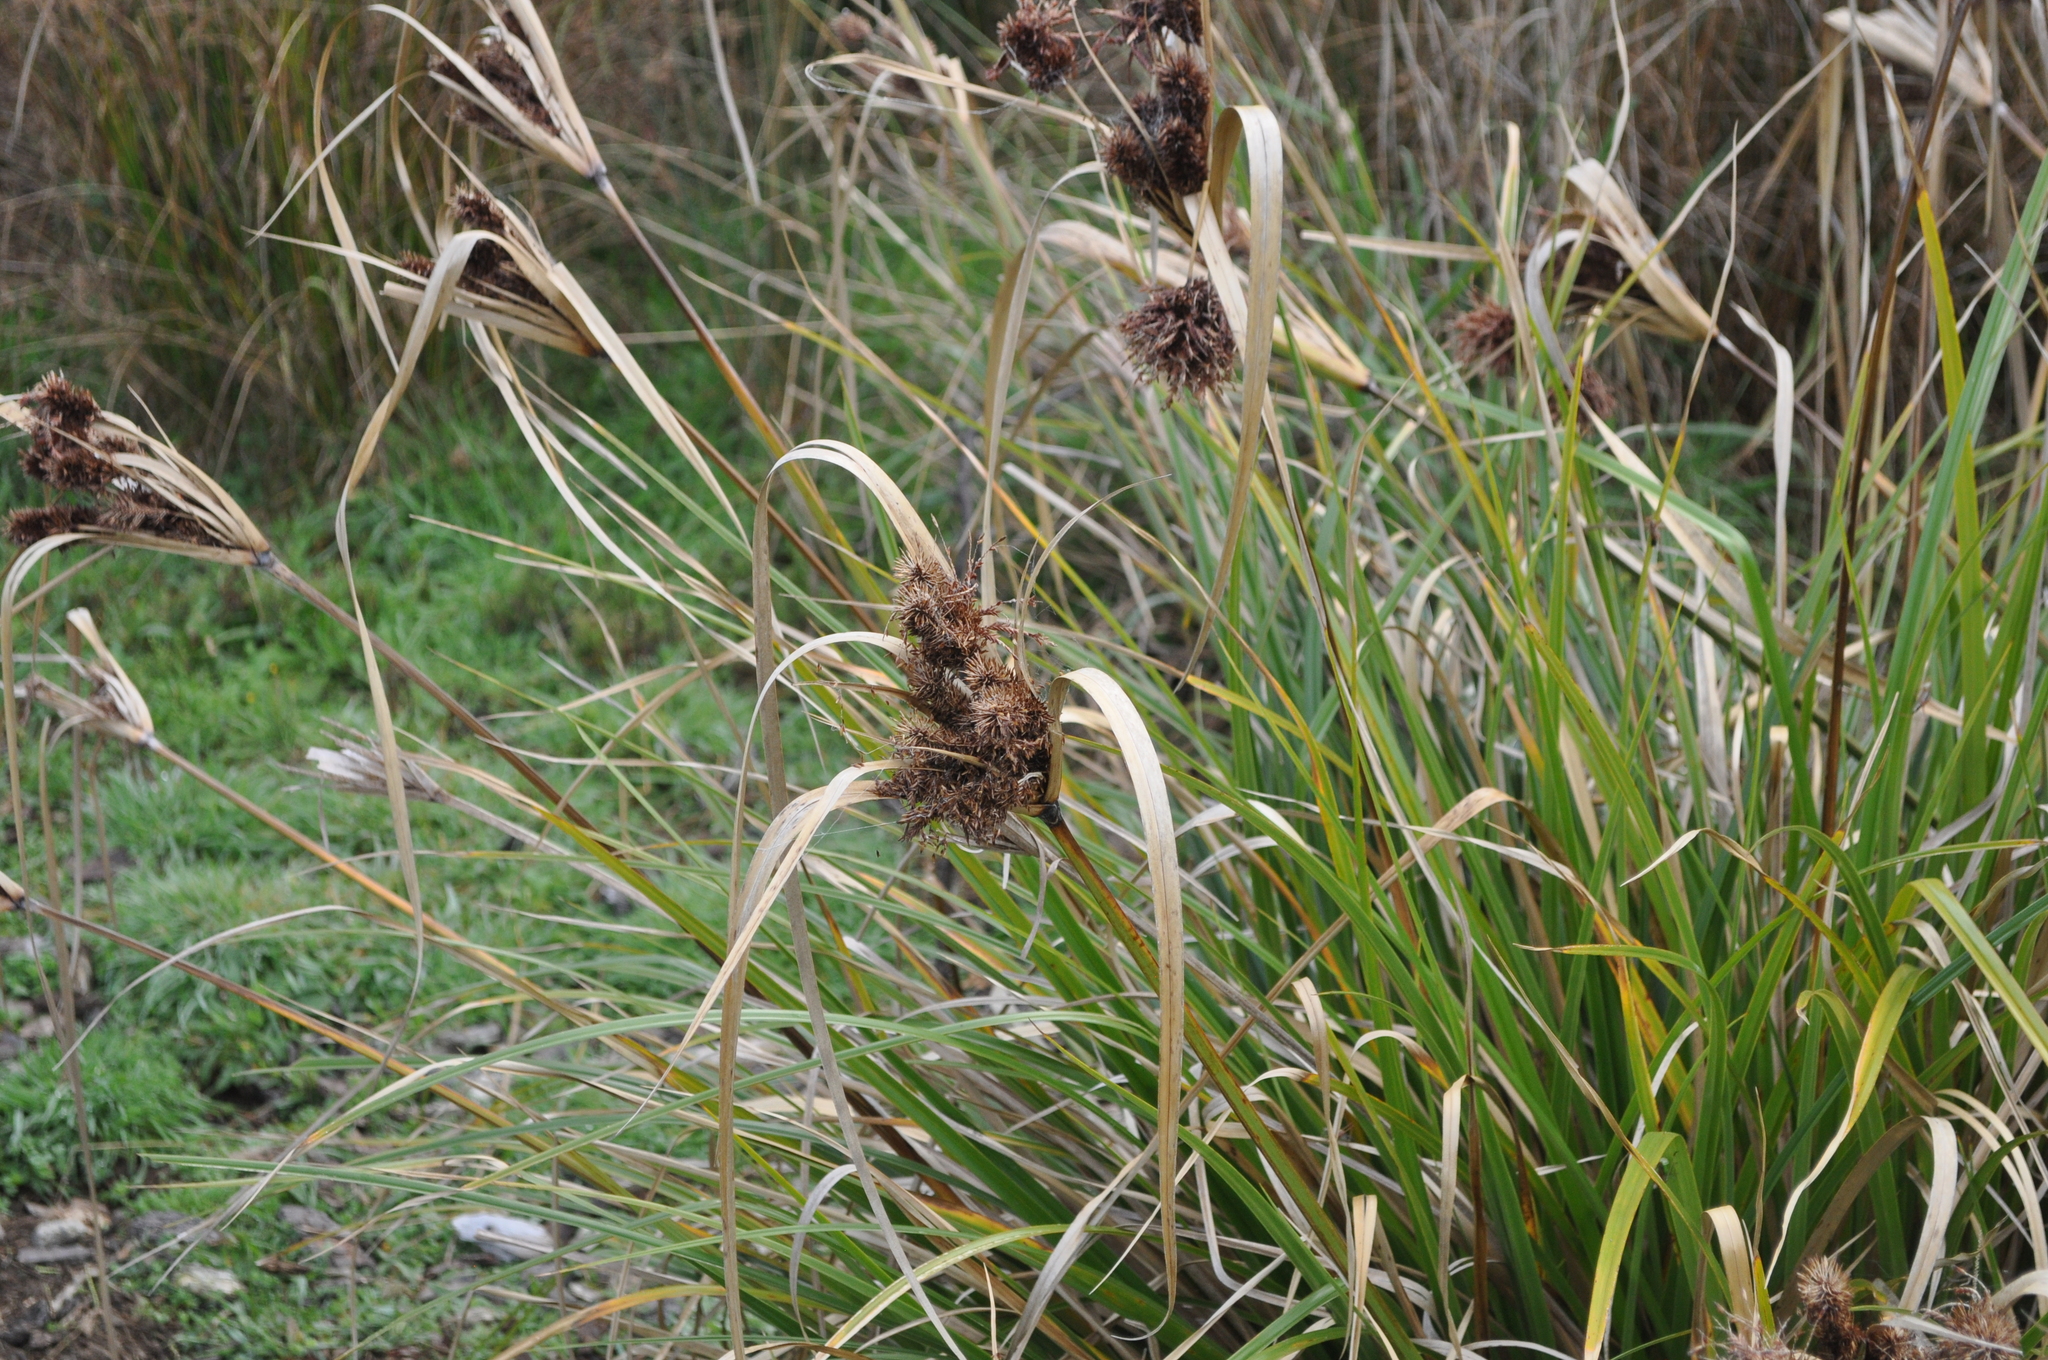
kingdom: Plantae
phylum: Tracheophyta
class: Liliopsida
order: Poales
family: Cyperaceae
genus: Cyperus
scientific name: Cyperus ustulatus
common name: Giant umbrella-sedge
